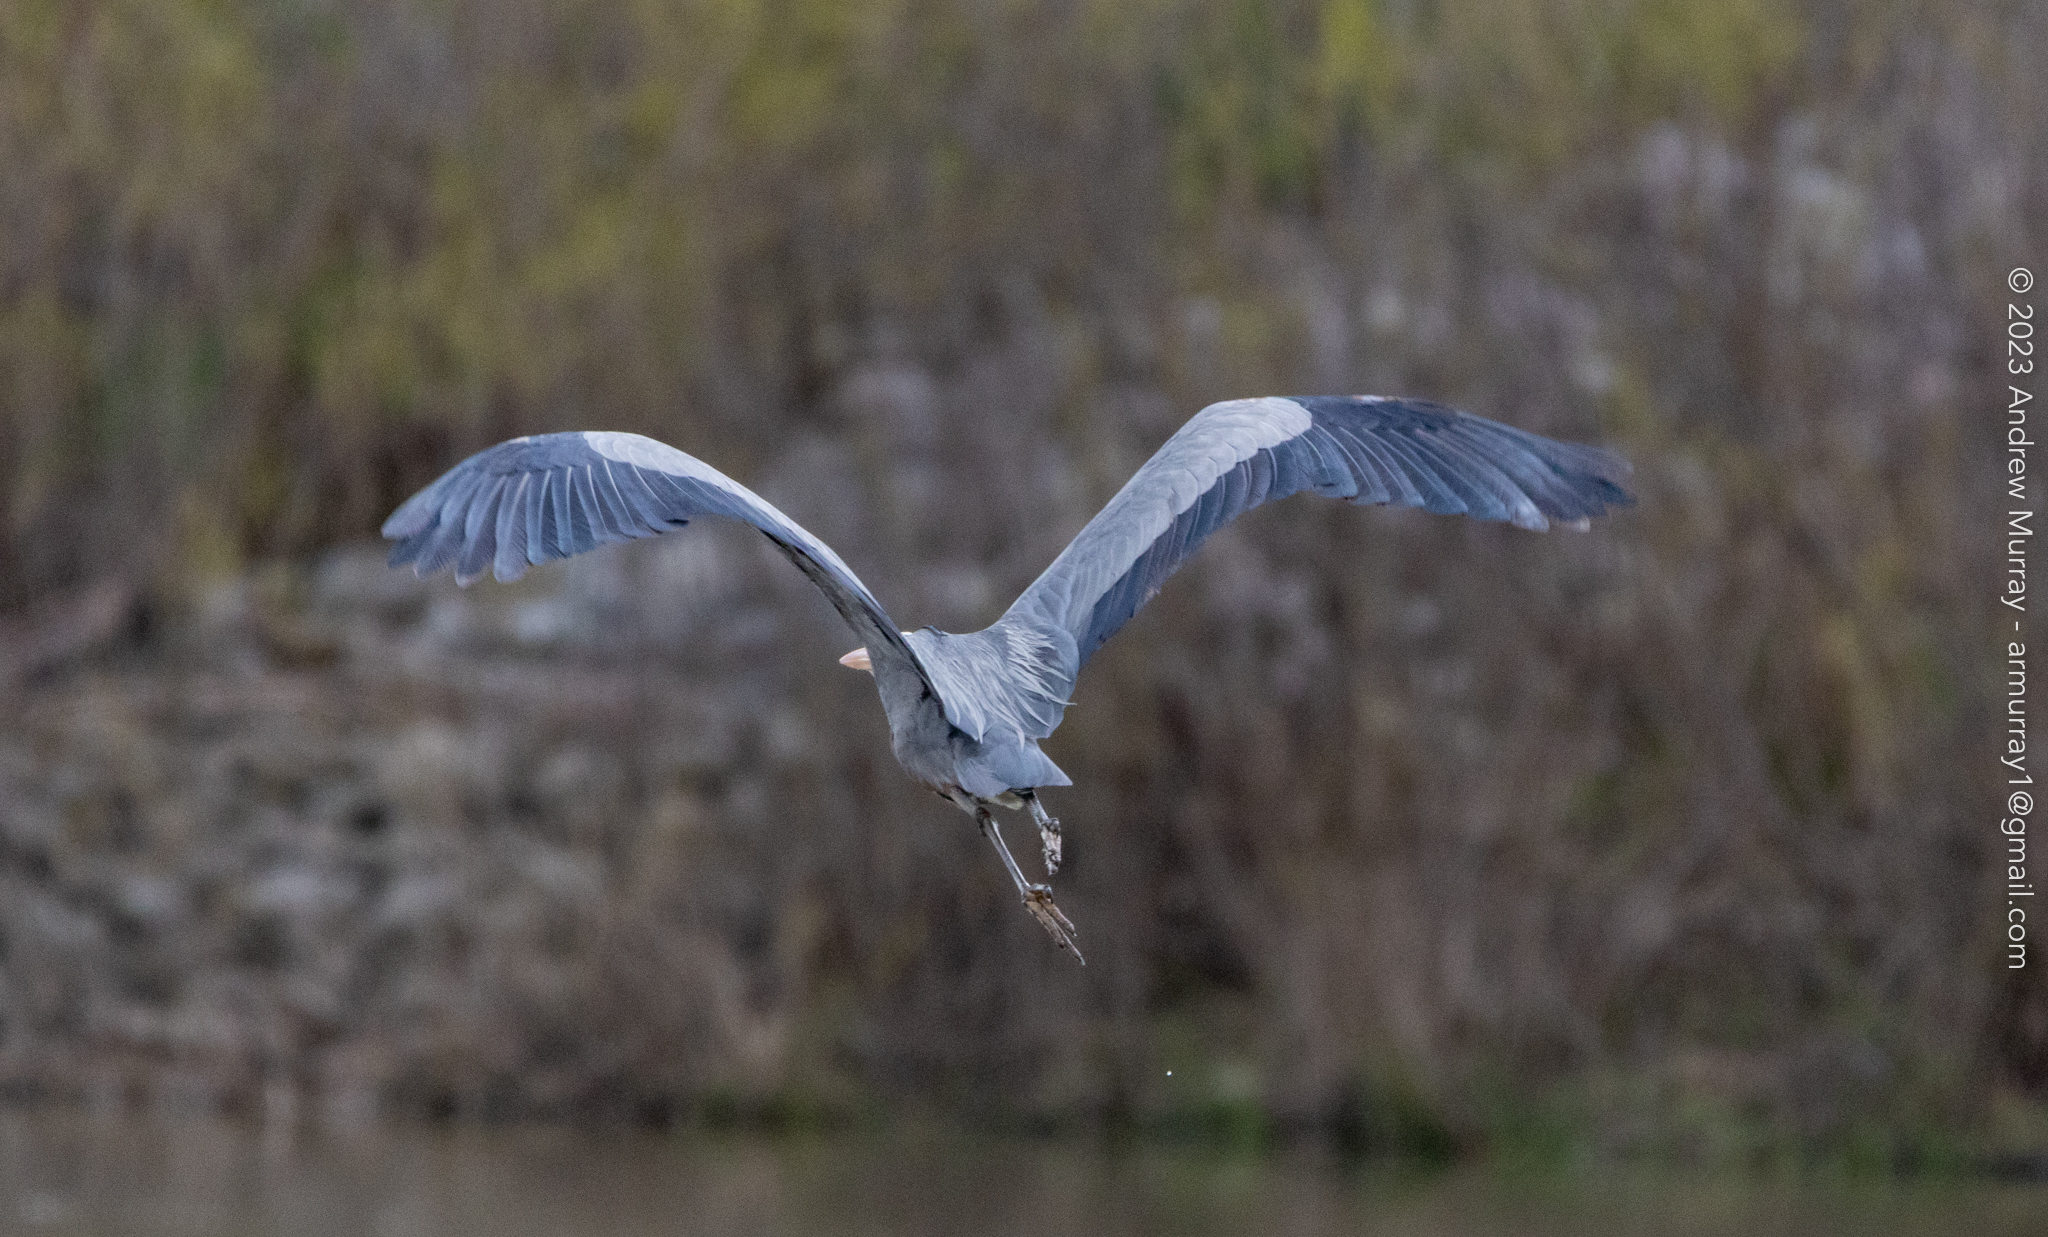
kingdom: Animalia
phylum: Chordata
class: Aves
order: Pelecaniformes
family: Ardeidae
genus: Ardea
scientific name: Ardea herodias
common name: Great blue heron
